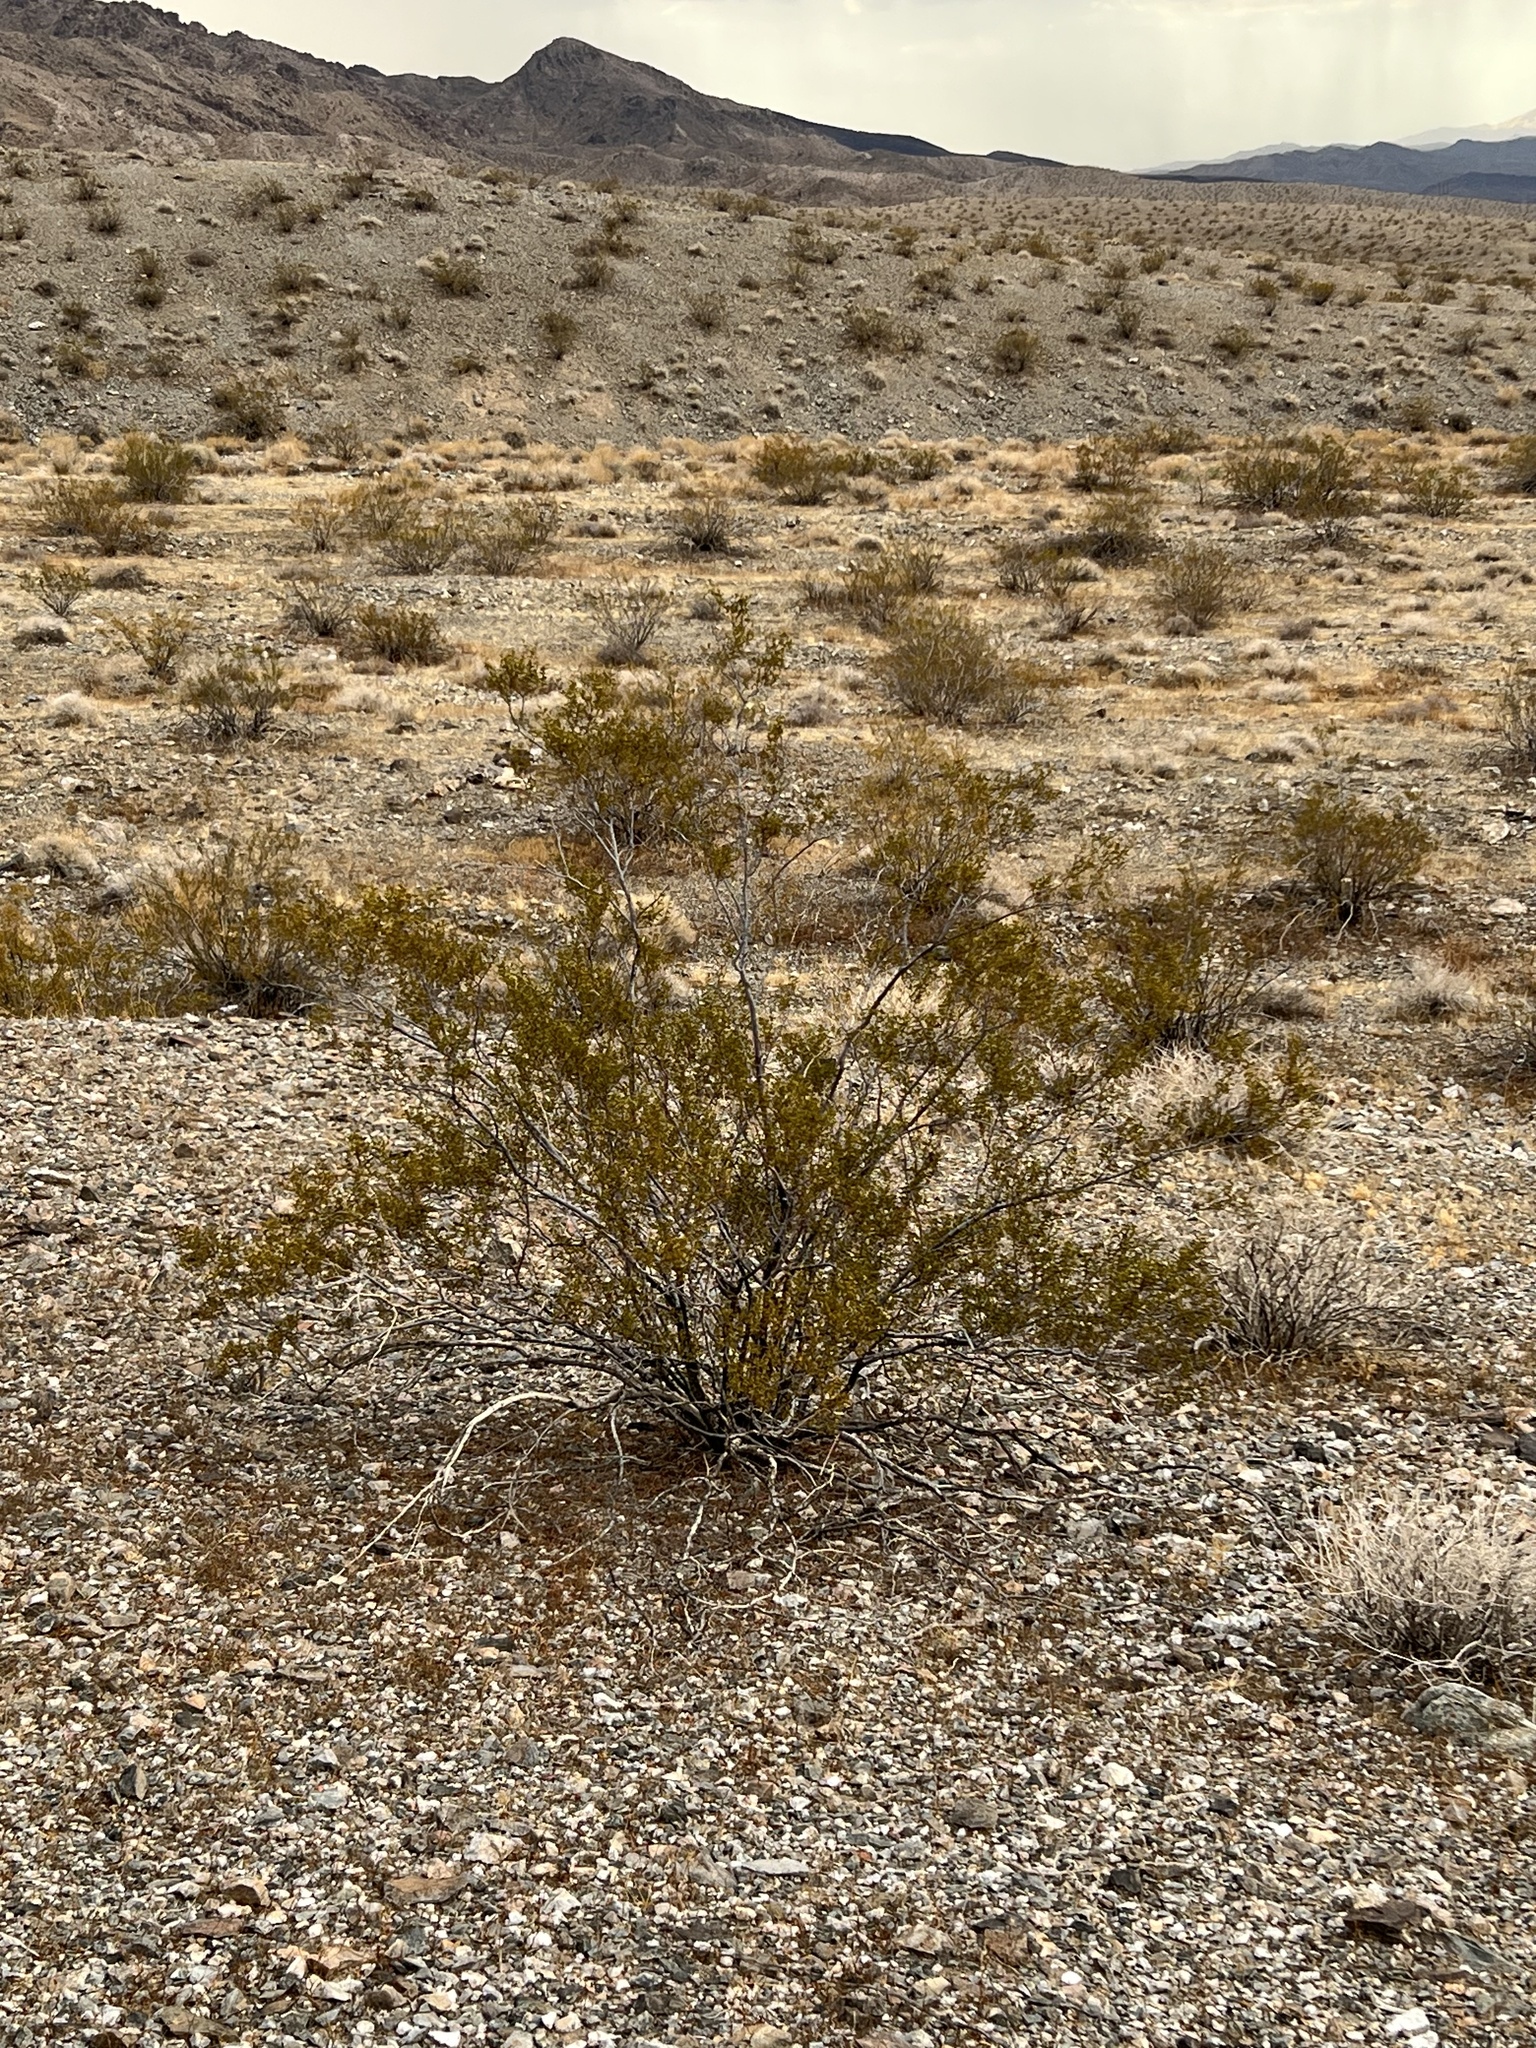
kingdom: Plantae
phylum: Tracheophyta
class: Magnoliopsida
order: Zygophyllales
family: Zygophyllaceae
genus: Larrea
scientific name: Larrea tridentata
